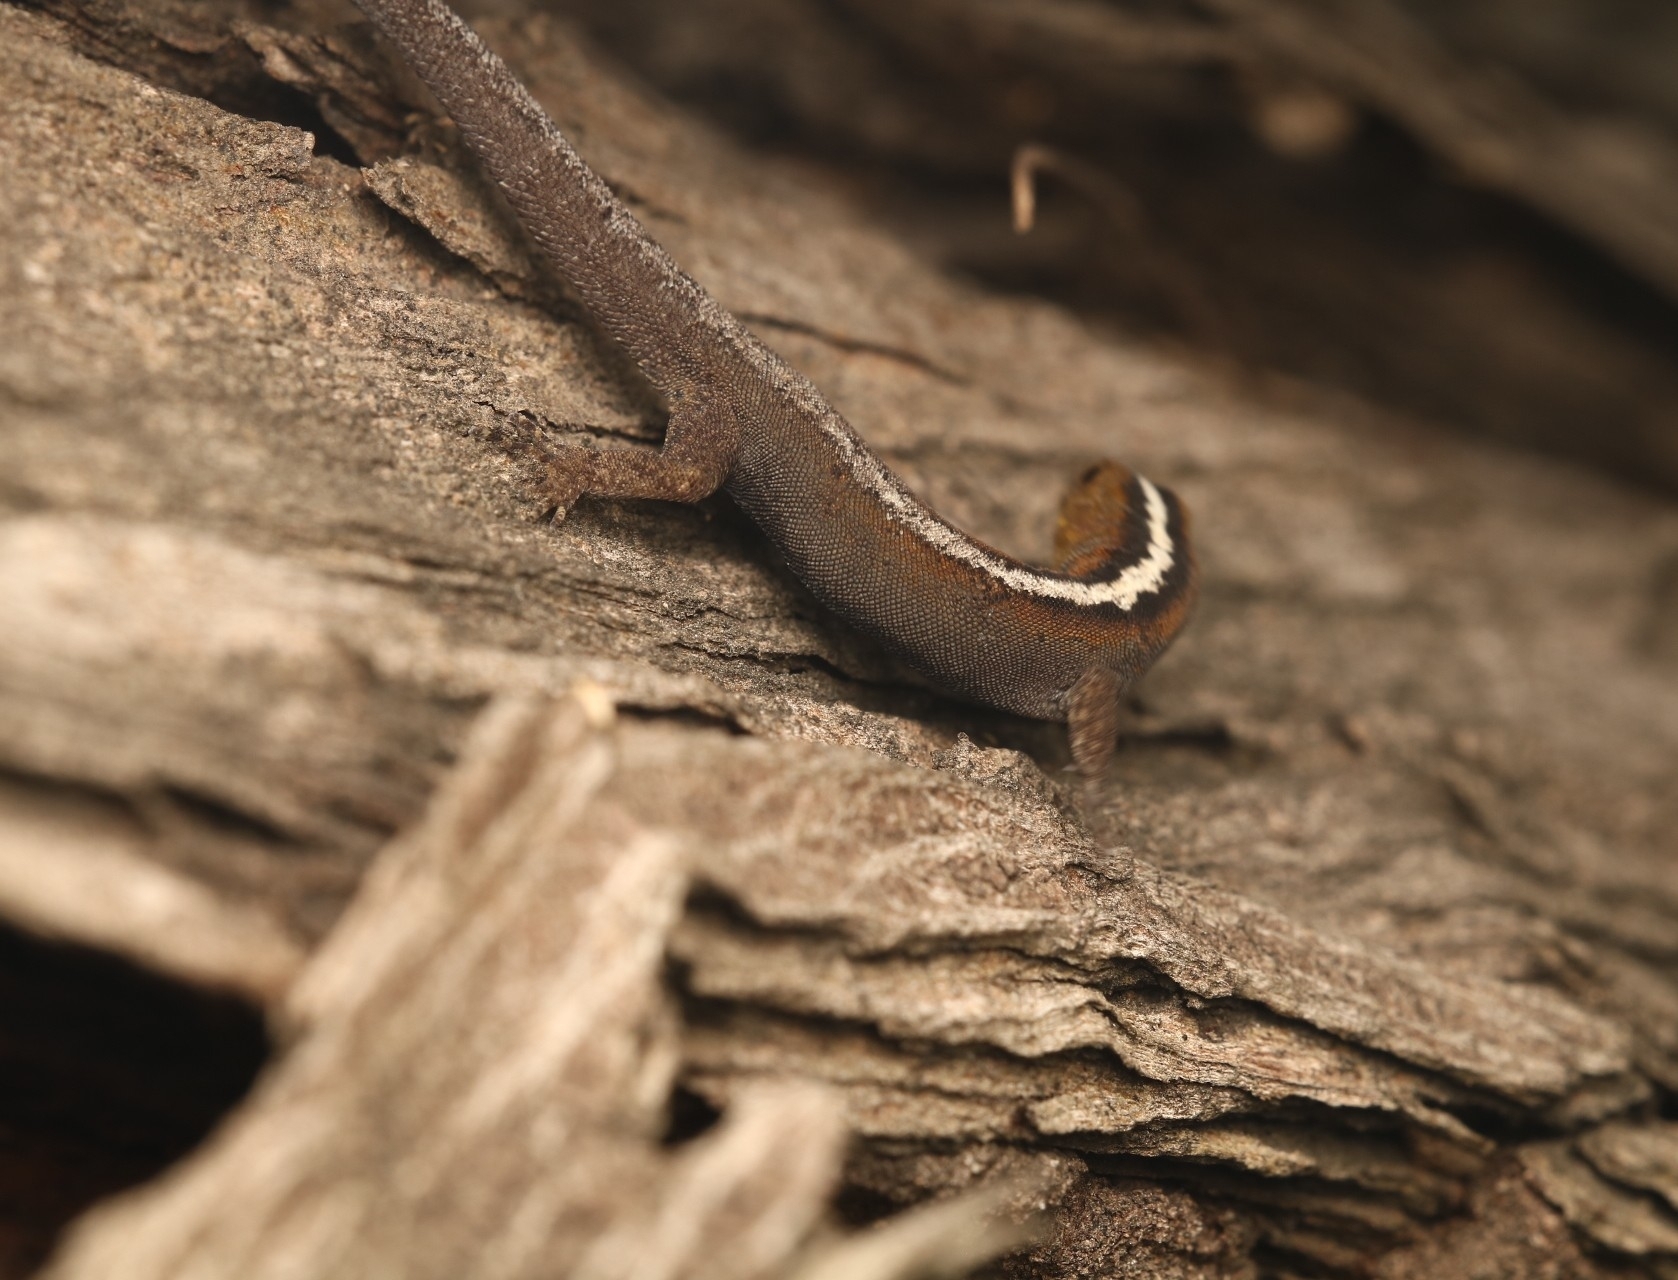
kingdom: Animalia
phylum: Chordata
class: Squamata
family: Sphaerodactylidae
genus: Gonatodes
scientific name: Gonatodes vittatus
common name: Wiegmann's striped gecko
